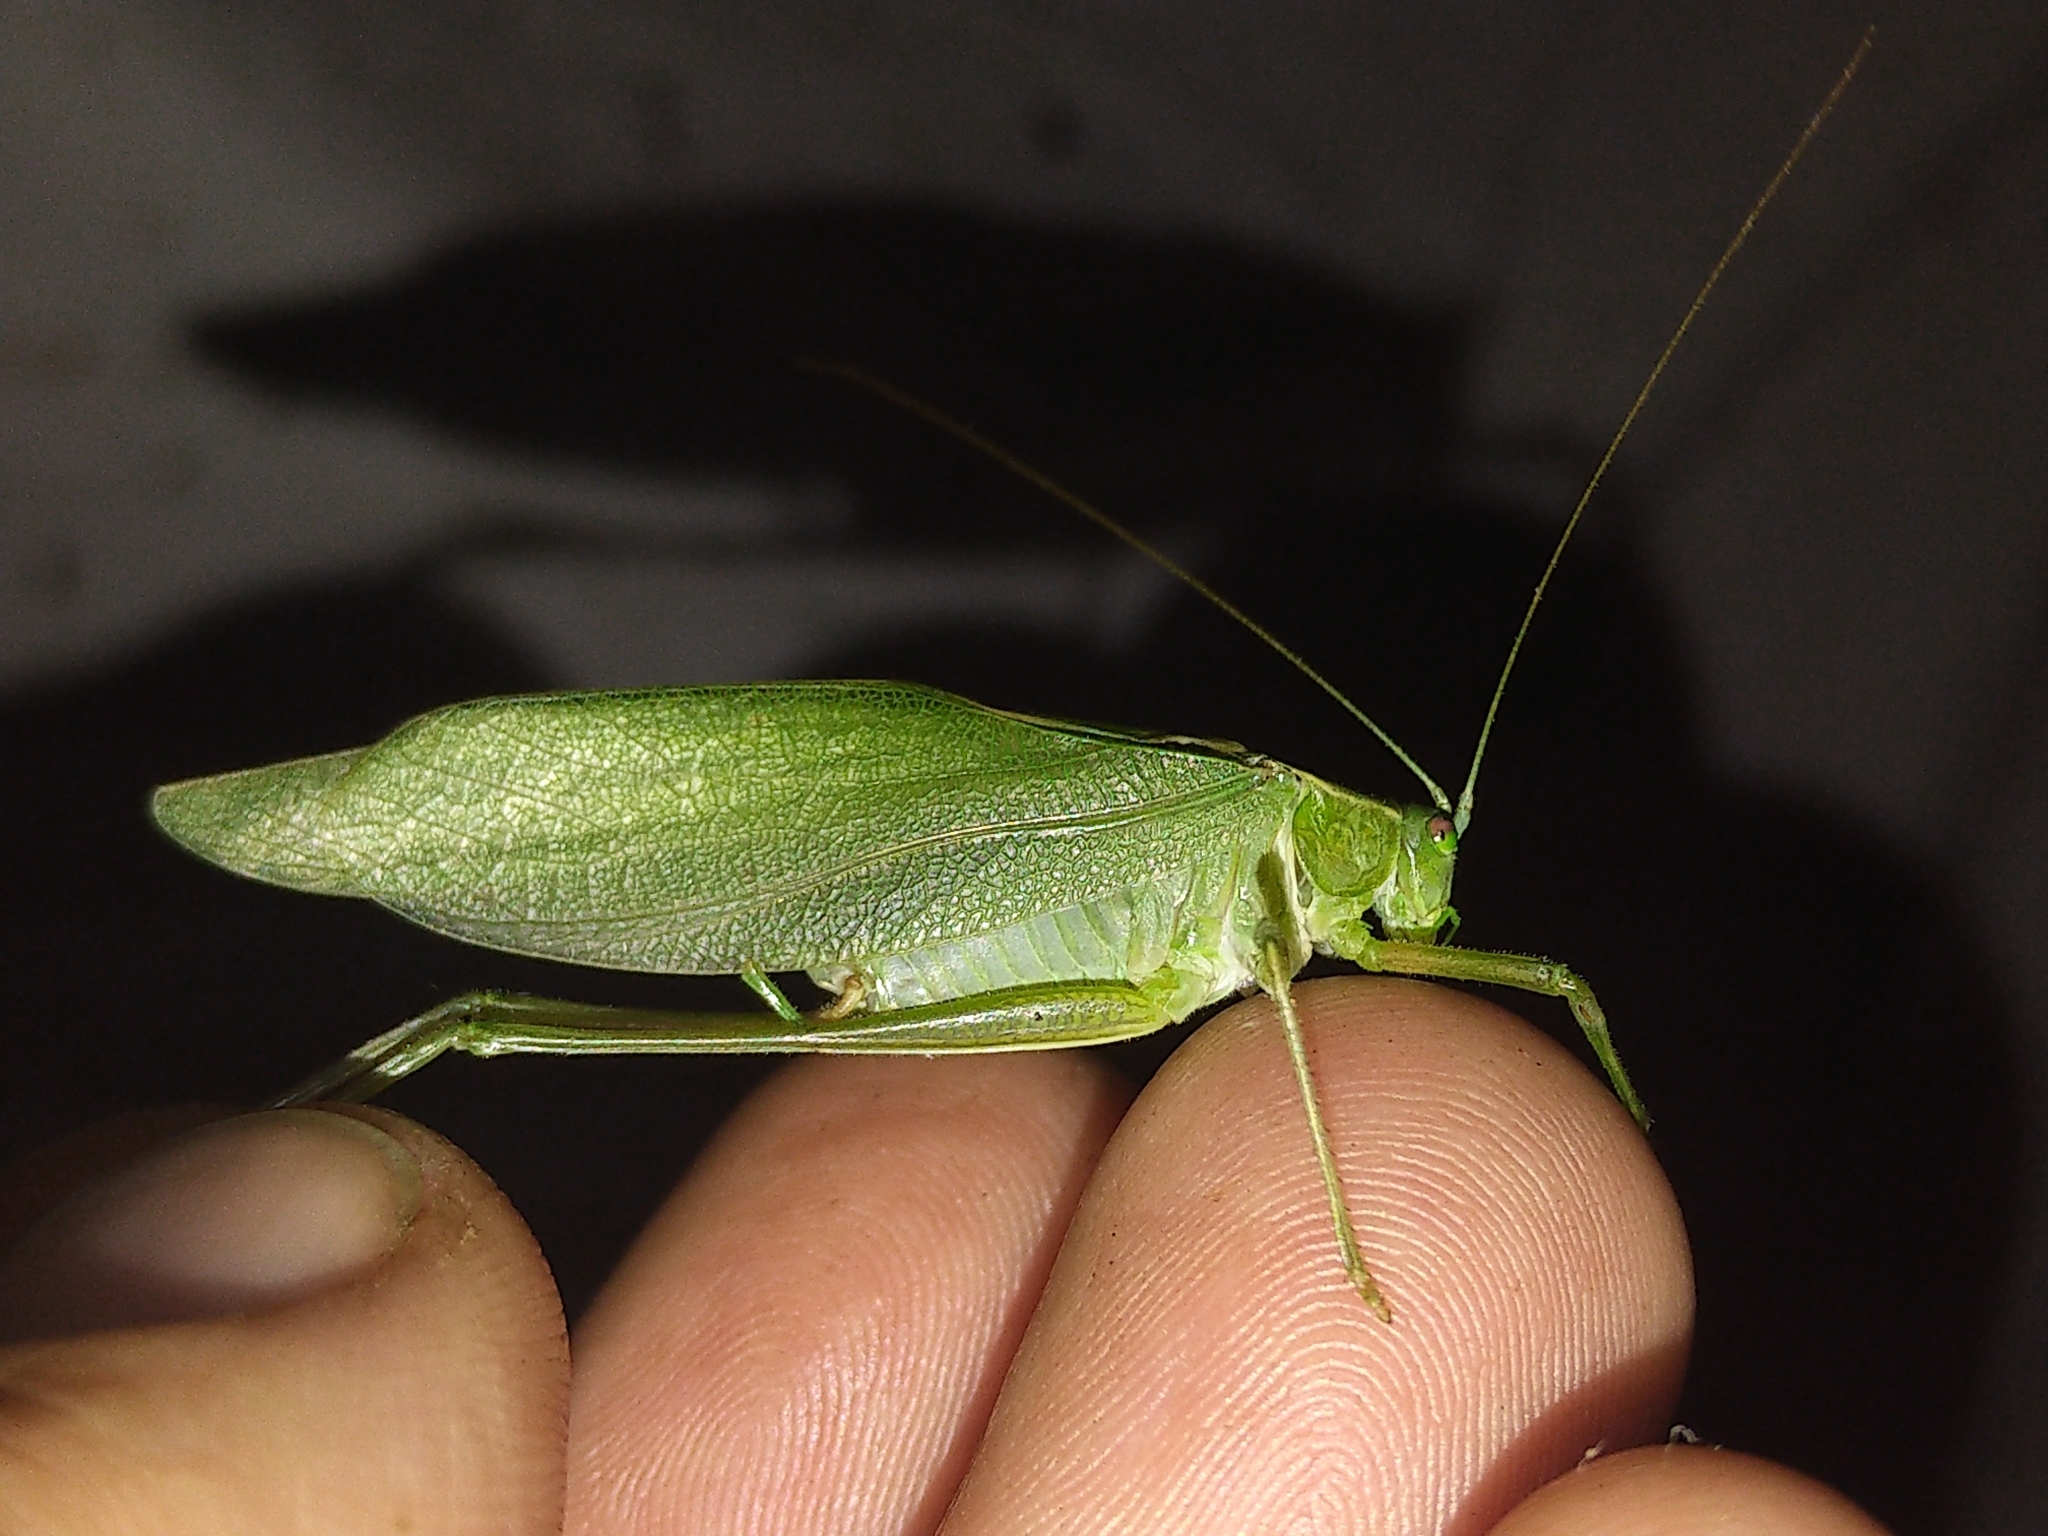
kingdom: Animalia
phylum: Arthropoda
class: Insecta
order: Orthoptera
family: Tettigoniidae
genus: Scudderia
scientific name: Scudderia pistillata
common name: Broad-winged bush-katydid
